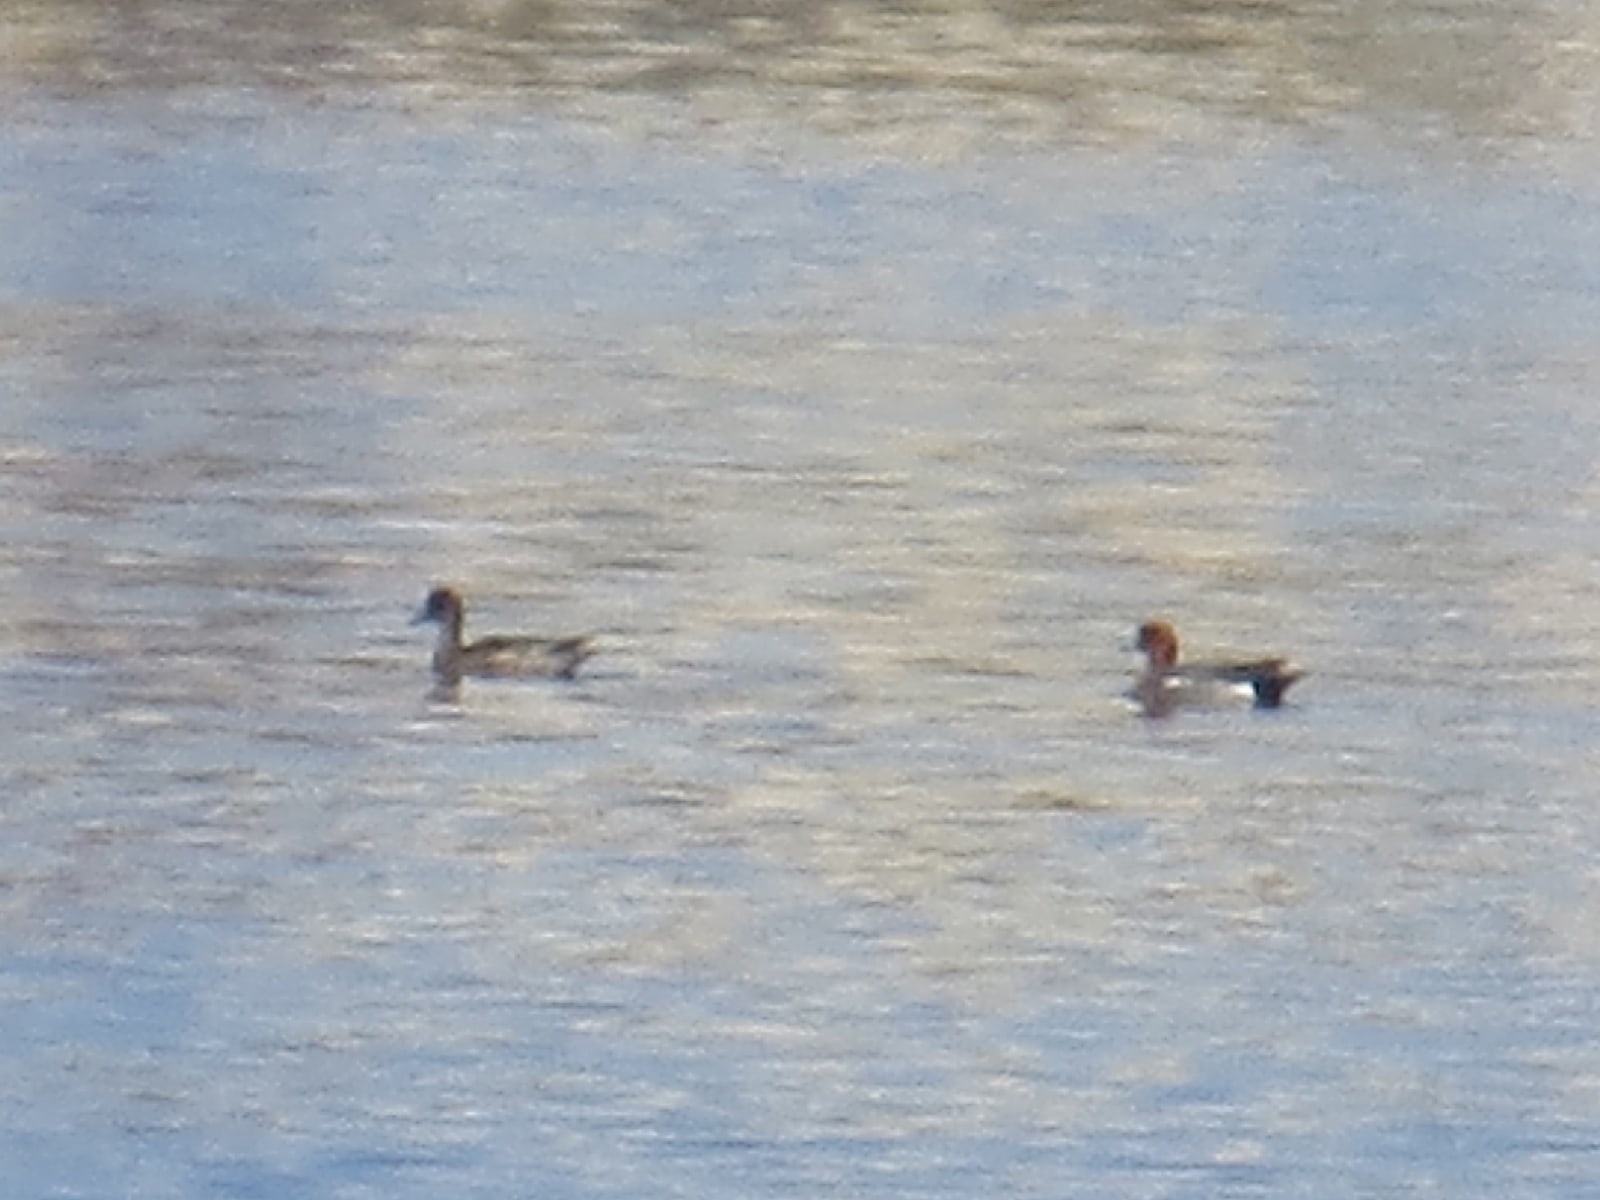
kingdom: Animalia
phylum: Chordata
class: Aves
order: Anseriformes
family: Anatidae
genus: Mareca
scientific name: Mareca penelope
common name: Eurasian wigeon
